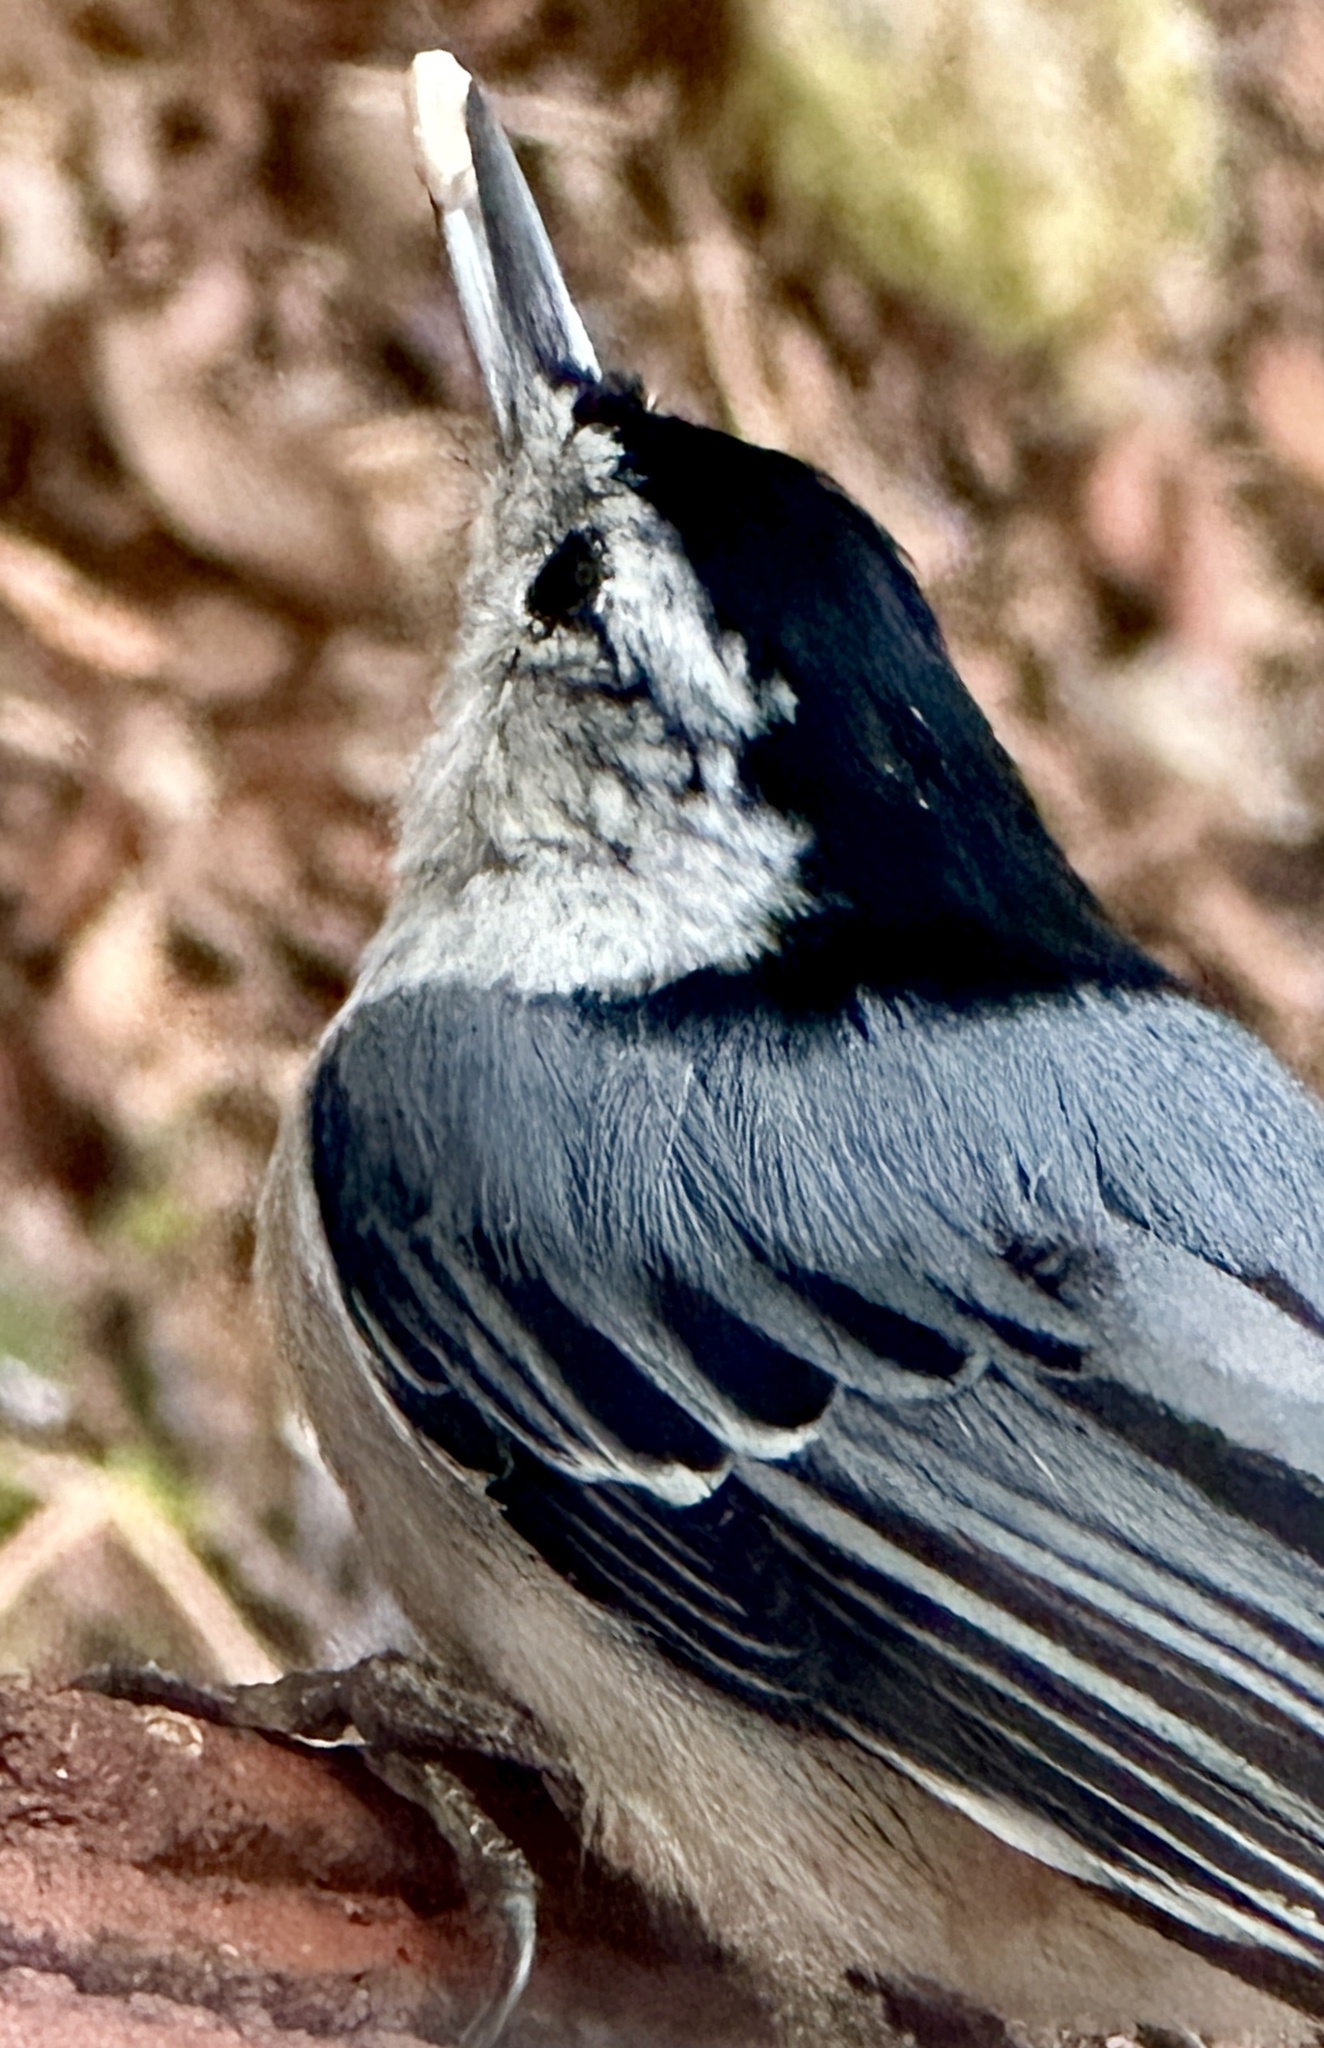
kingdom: Animalia
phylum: Chordata
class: Aves
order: Passeriformes
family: Sittidae
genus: Sitta
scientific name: Sitta carolinensis
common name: White-breasted nuthatch
